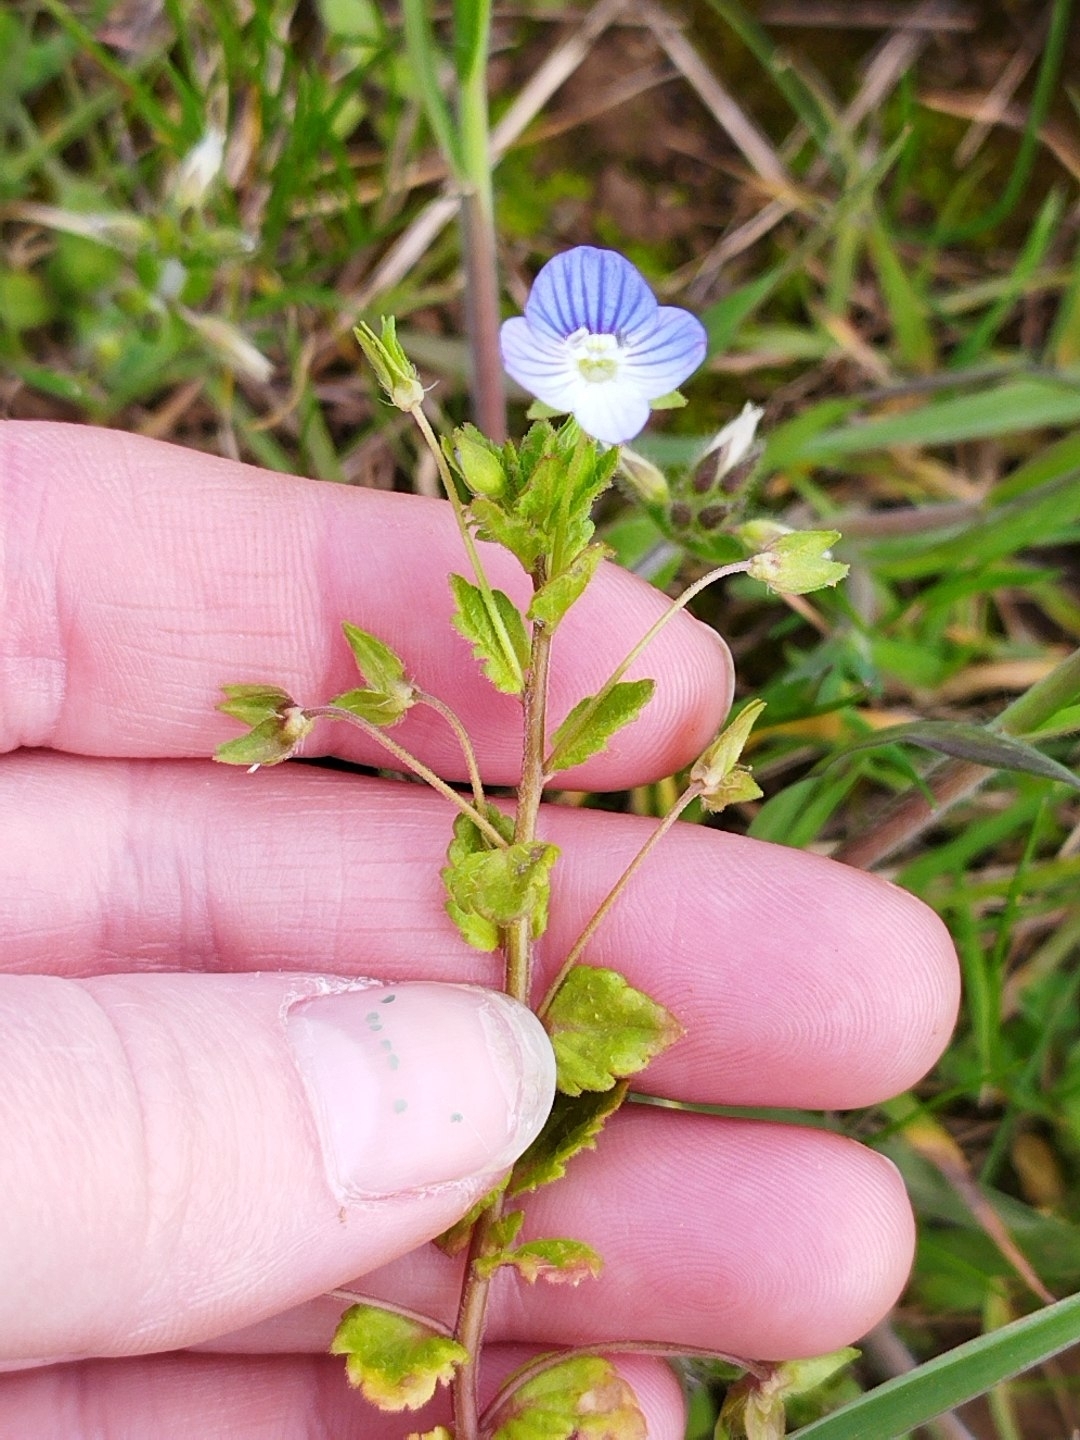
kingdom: Plantae
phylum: Tracheophyta
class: Magnoliopsida
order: Lamiales
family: Plantaginaceae
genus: Veronica
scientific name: Veronica persica
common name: Common field-speedwell
